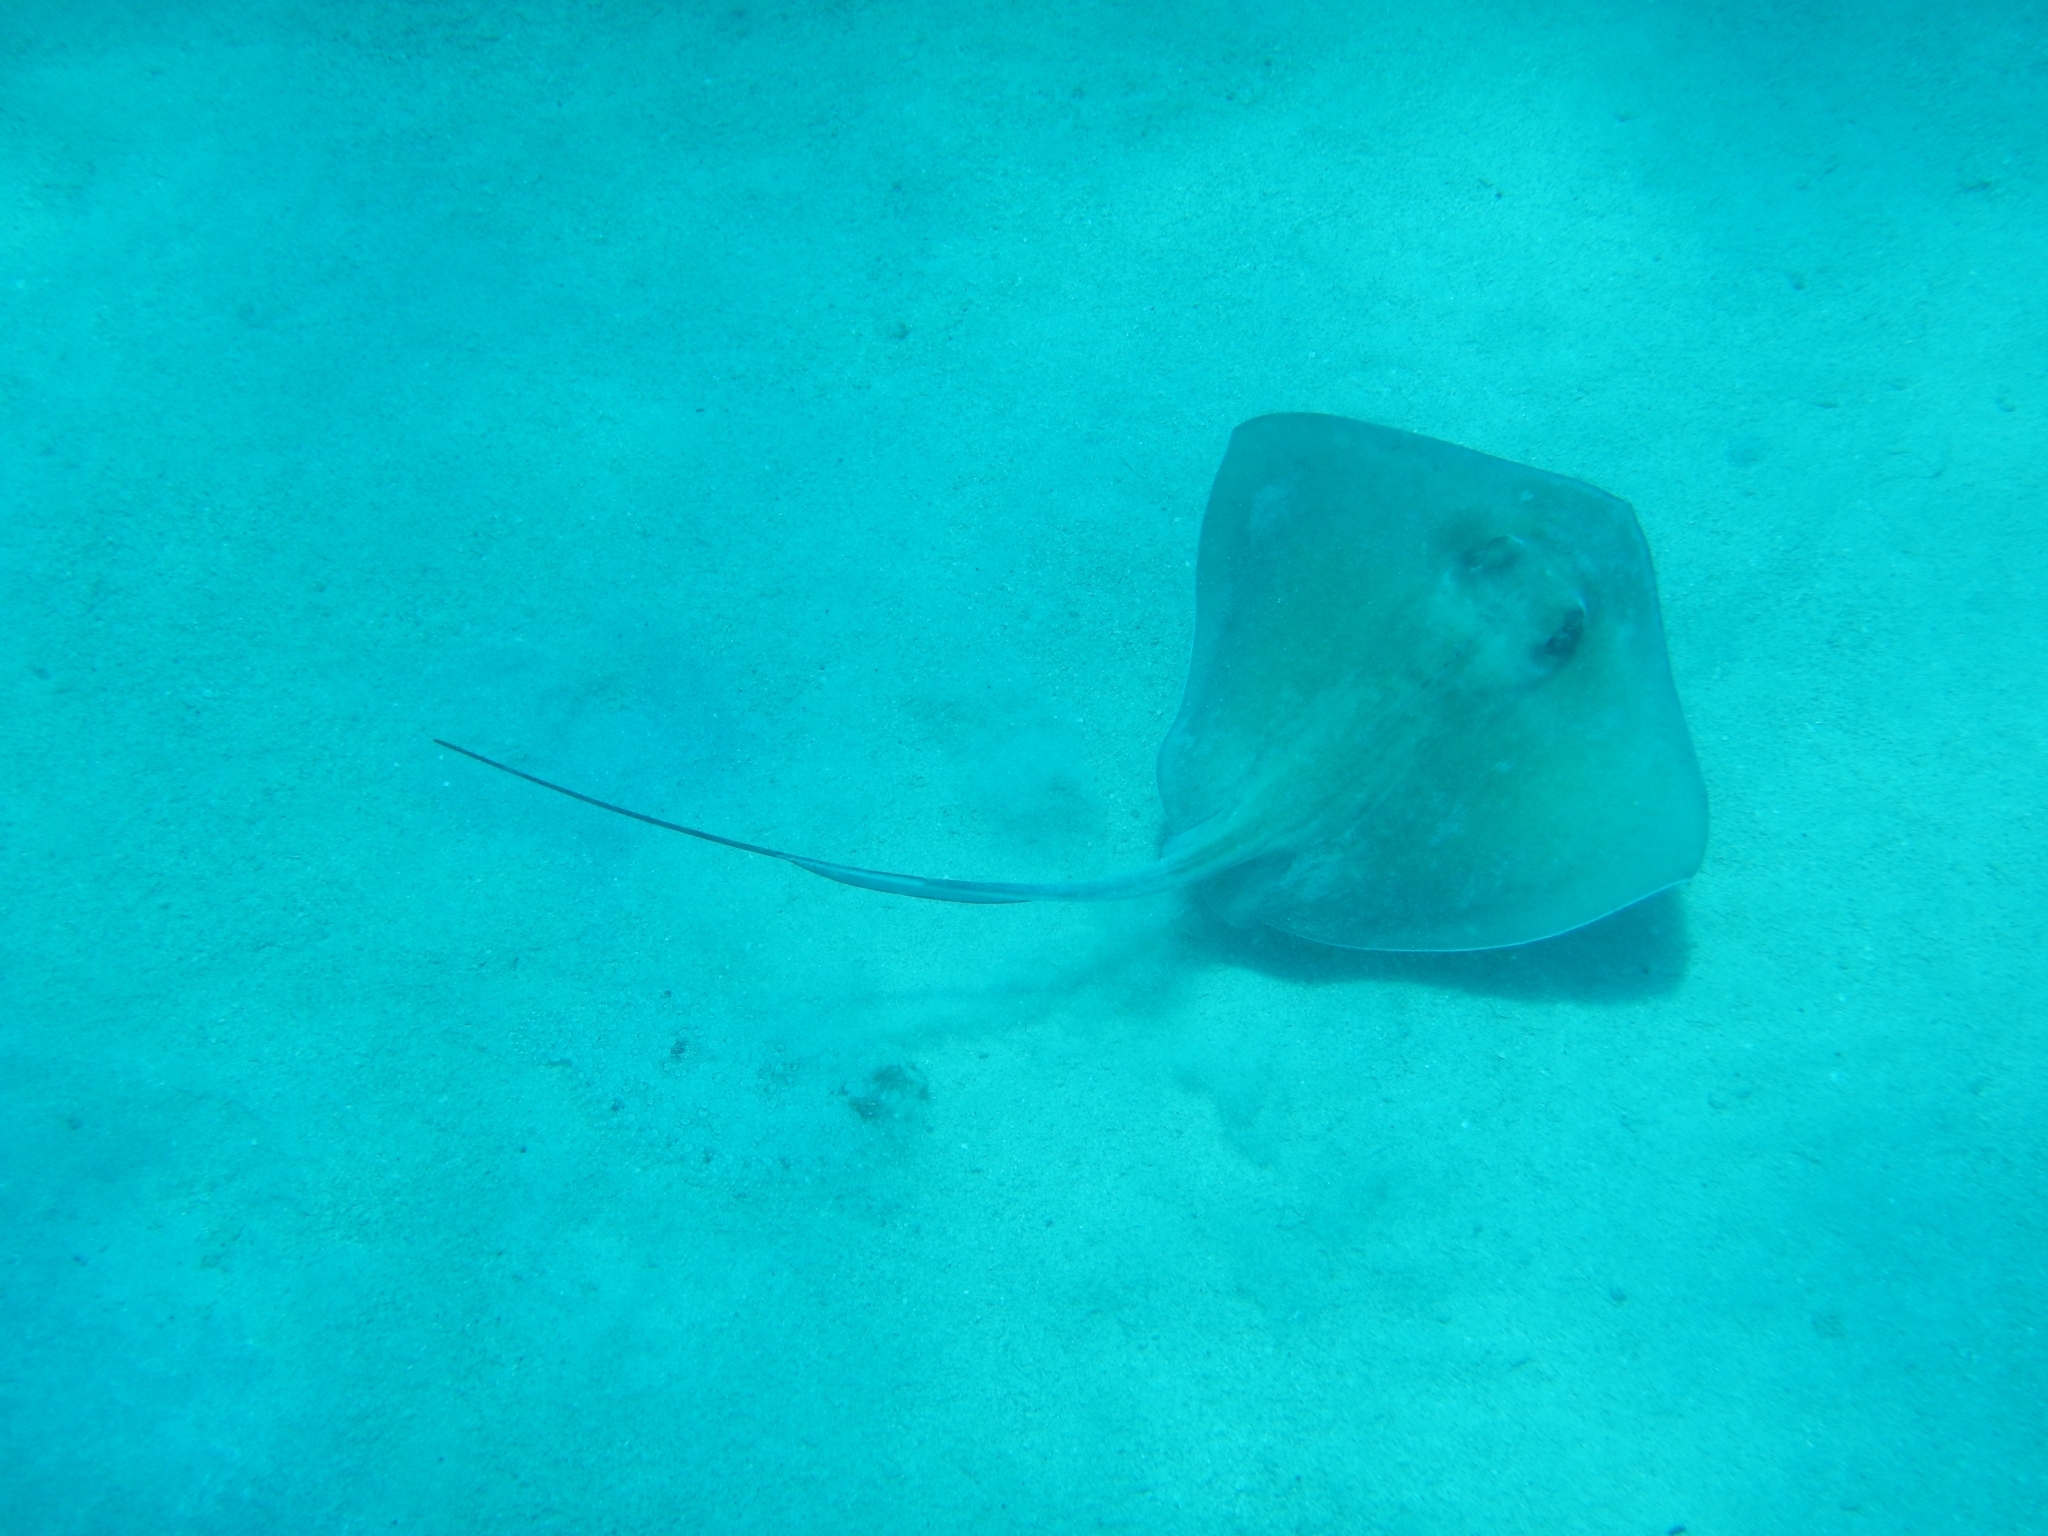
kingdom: Animalia
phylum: Chordata
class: Elasmobranchii
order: Myliobatiformes
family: Dasyatidae
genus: Hypanus
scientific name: Hypanus americanus
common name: Southern stingray
